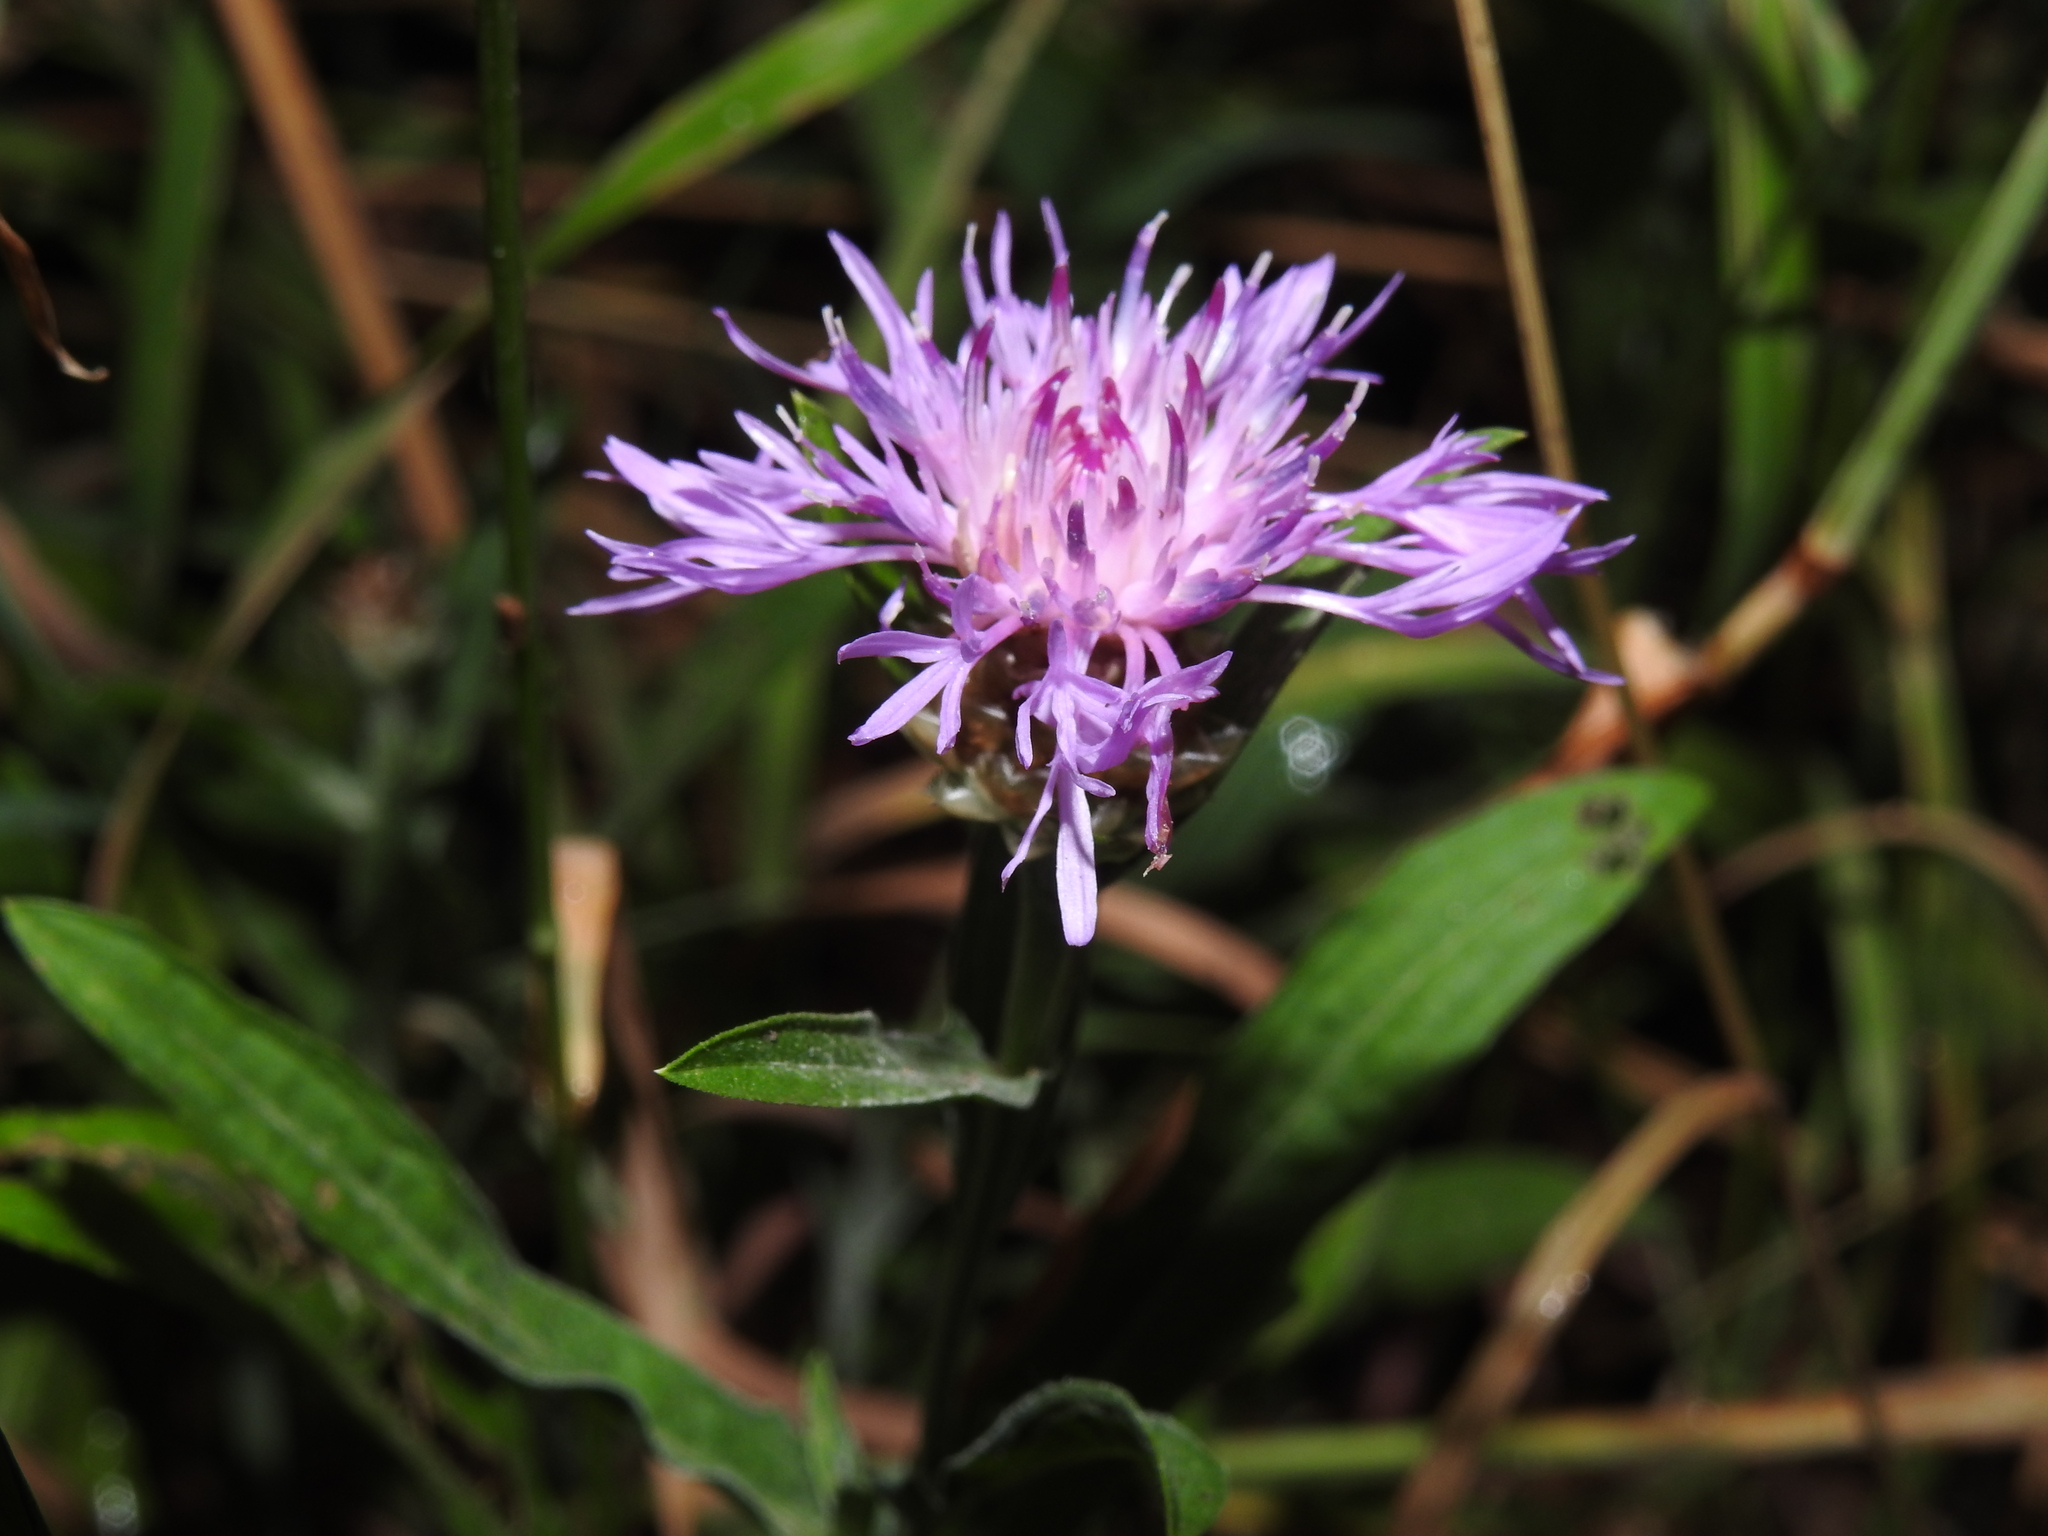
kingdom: Plantae
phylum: Tracheophyta
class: Magnoliopsida
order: Asterales
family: Asteraceae
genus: Centaurea
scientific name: Centaurea jacea
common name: Brown knapweed
